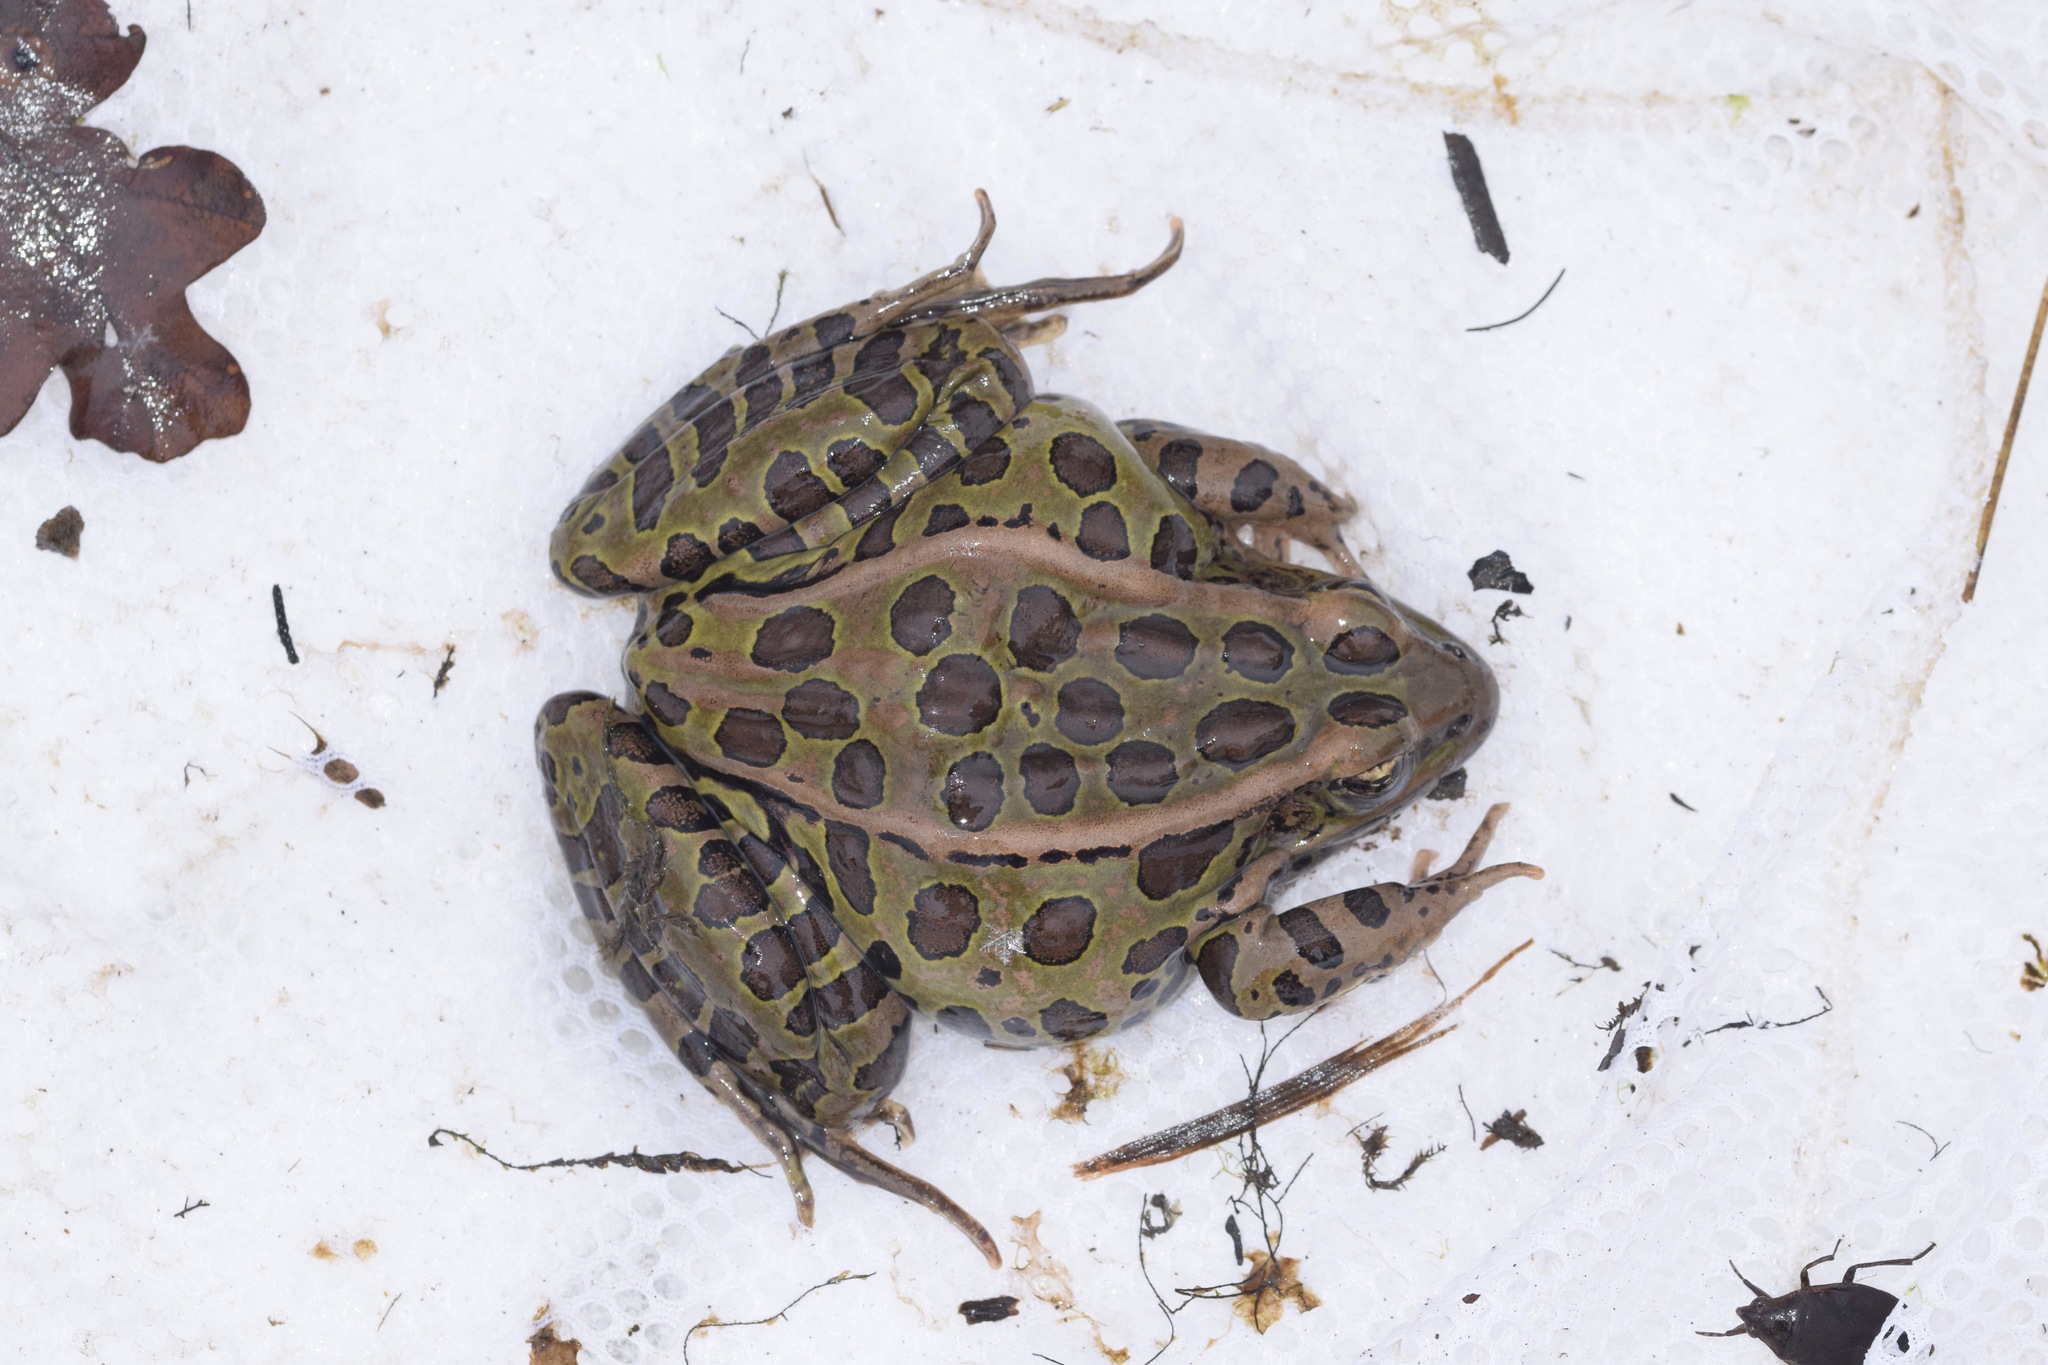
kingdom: Animalia
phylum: Chordata
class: Amphibia
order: Anura
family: Ranidae
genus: Lithobates
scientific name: Lithobates pipiens
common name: Northern leopard frog
